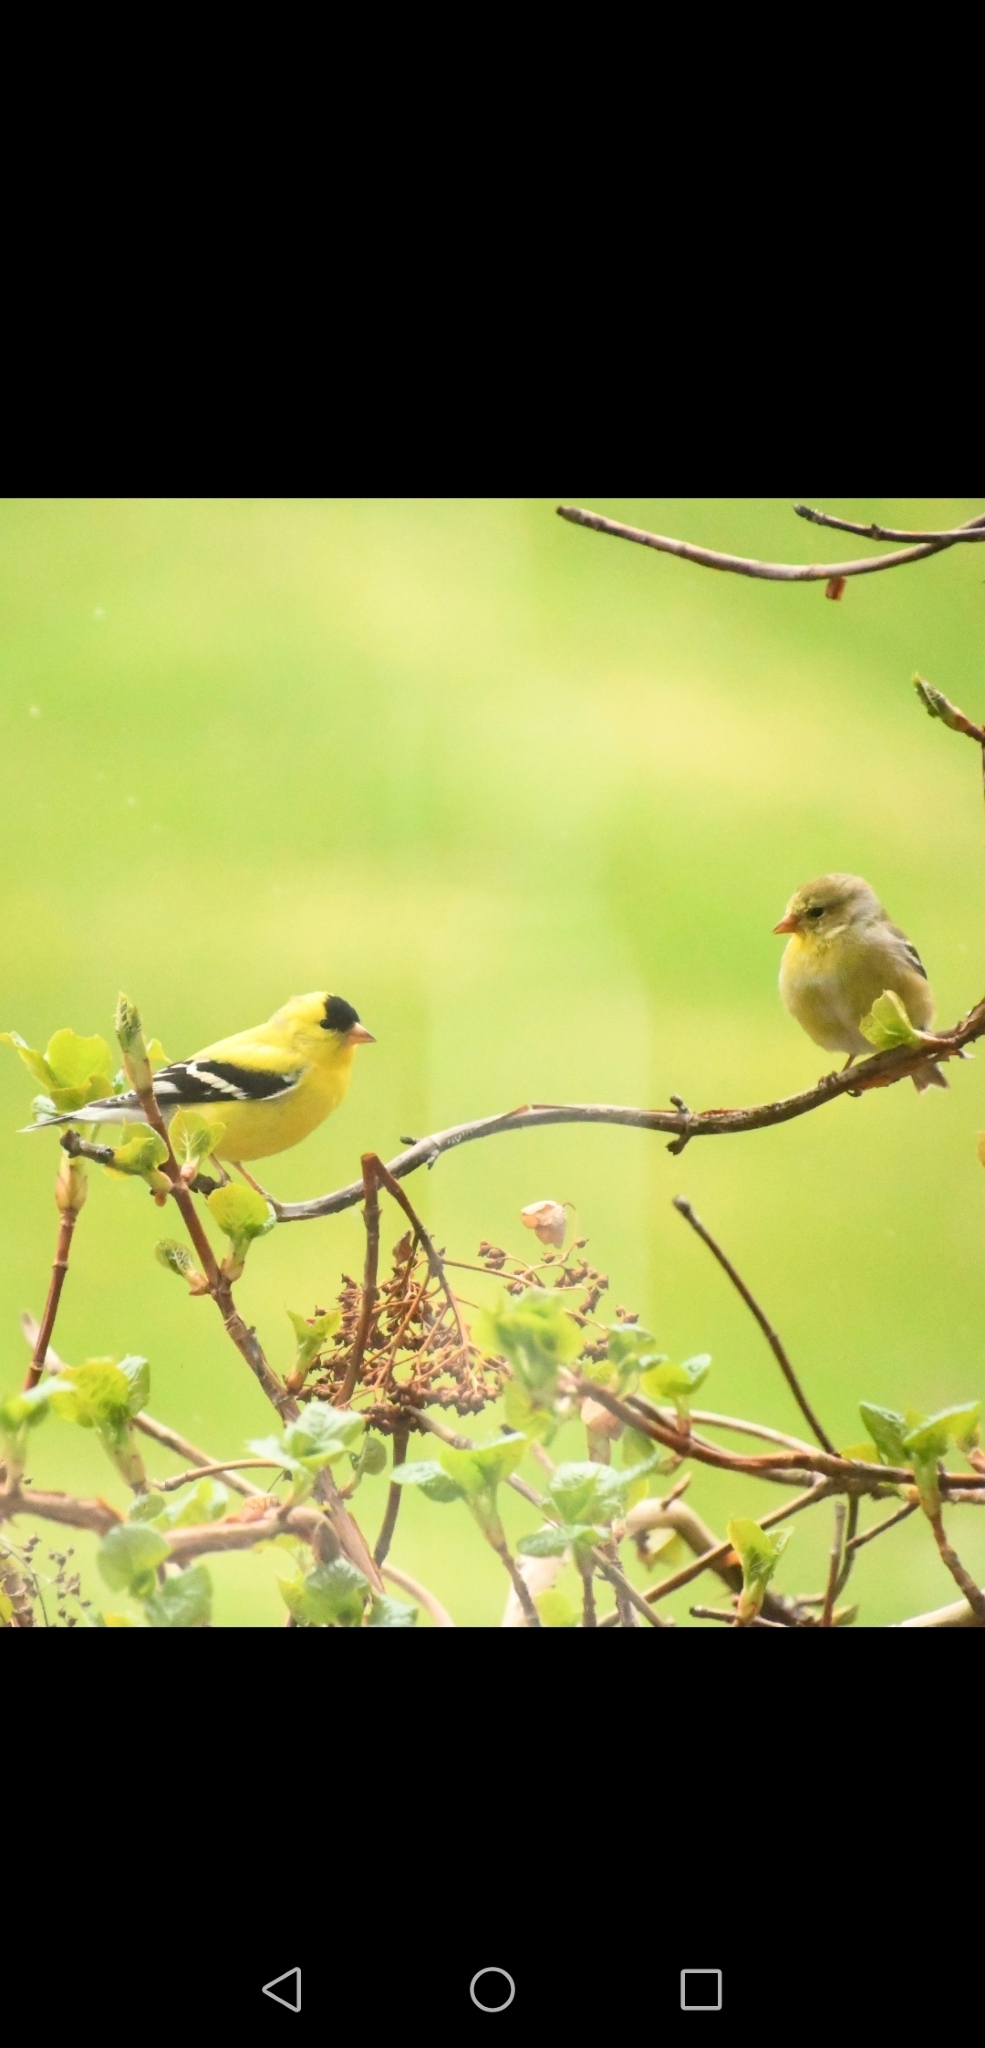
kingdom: Animalia
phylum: Chordata
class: Aves
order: Passeriformes
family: Fringillidae
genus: Spinus
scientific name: Spinus tristis
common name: American goldfinch
